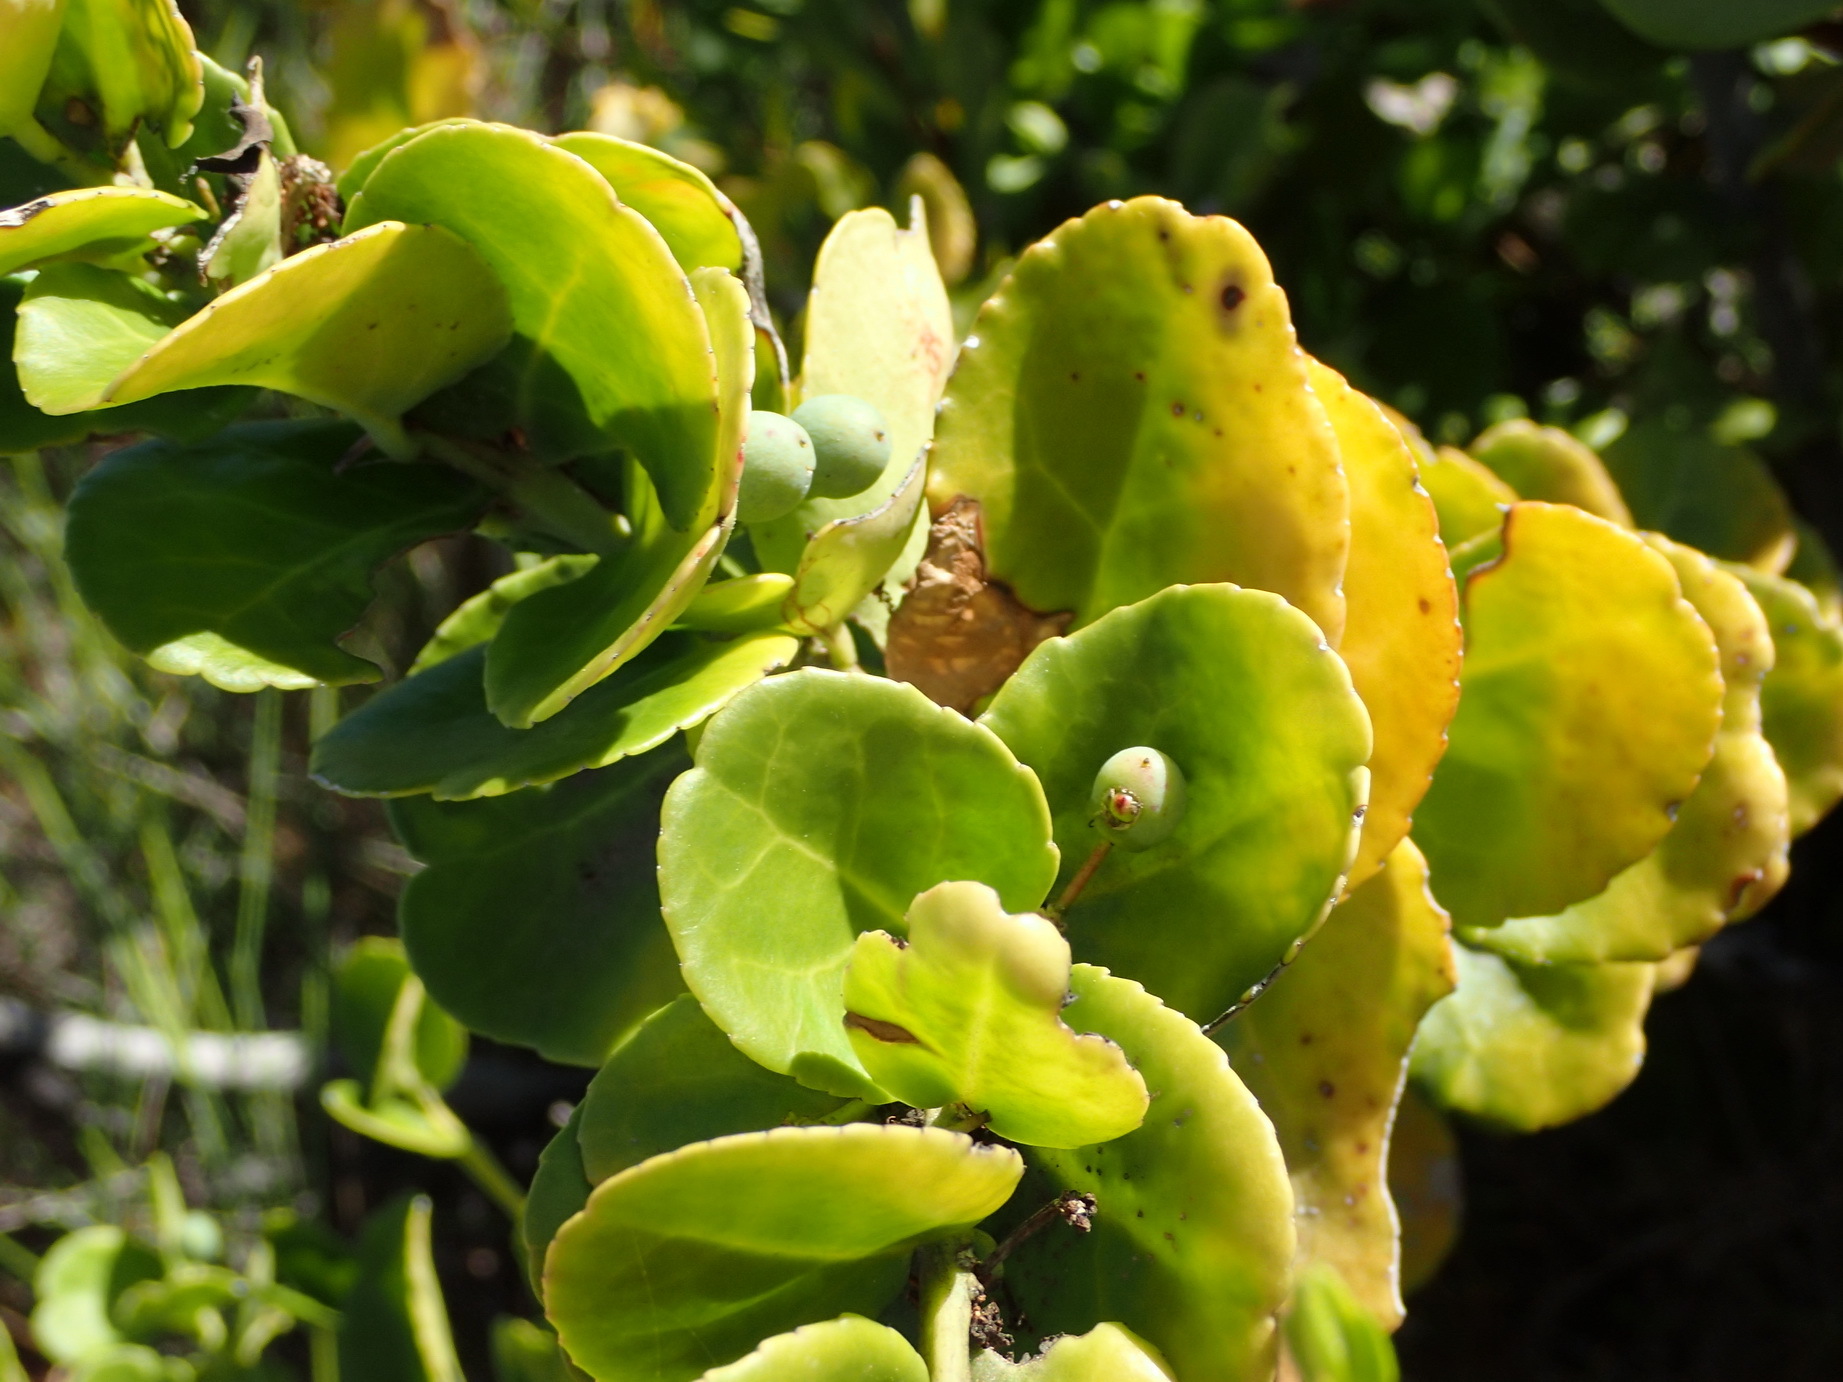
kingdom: Plantae
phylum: Tracheophyta
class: Magnoliopsida
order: Celastrales
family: Celastraceae
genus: Mystroxylon
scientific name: Mystroxylon aethiopicum
